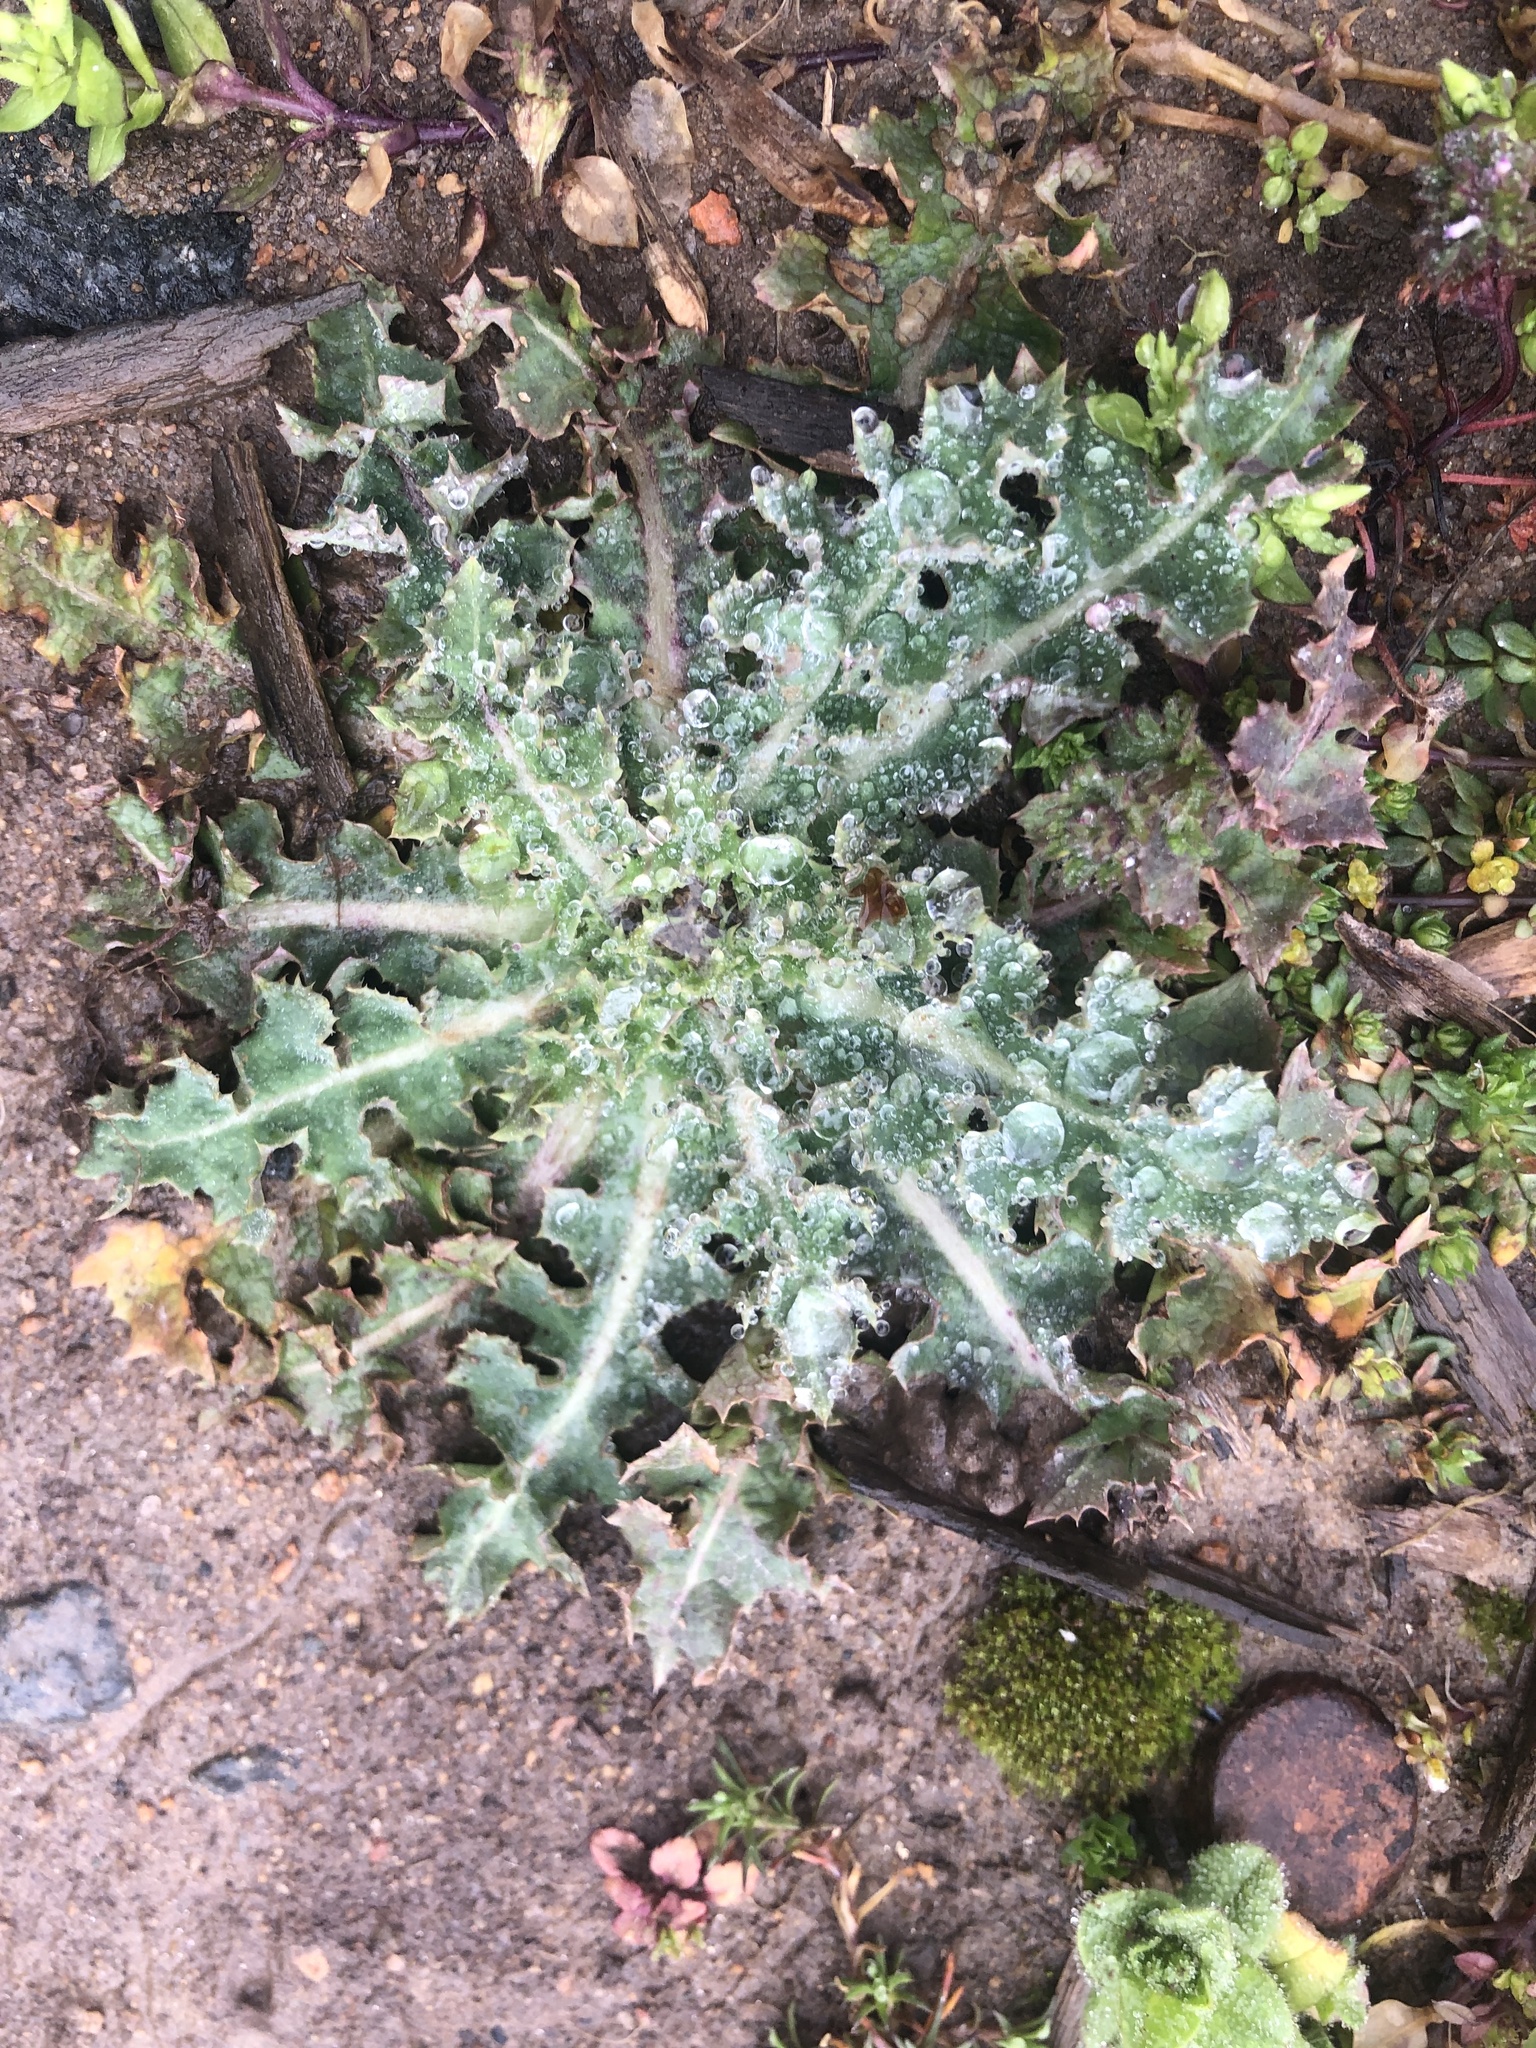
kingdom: Plantae
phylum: Tracheophyta
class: Magnoliopsida
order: Asterales
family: Asteraceae
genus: Sonchus
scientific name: Sonchus asper
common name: Prickly sow-thistle
